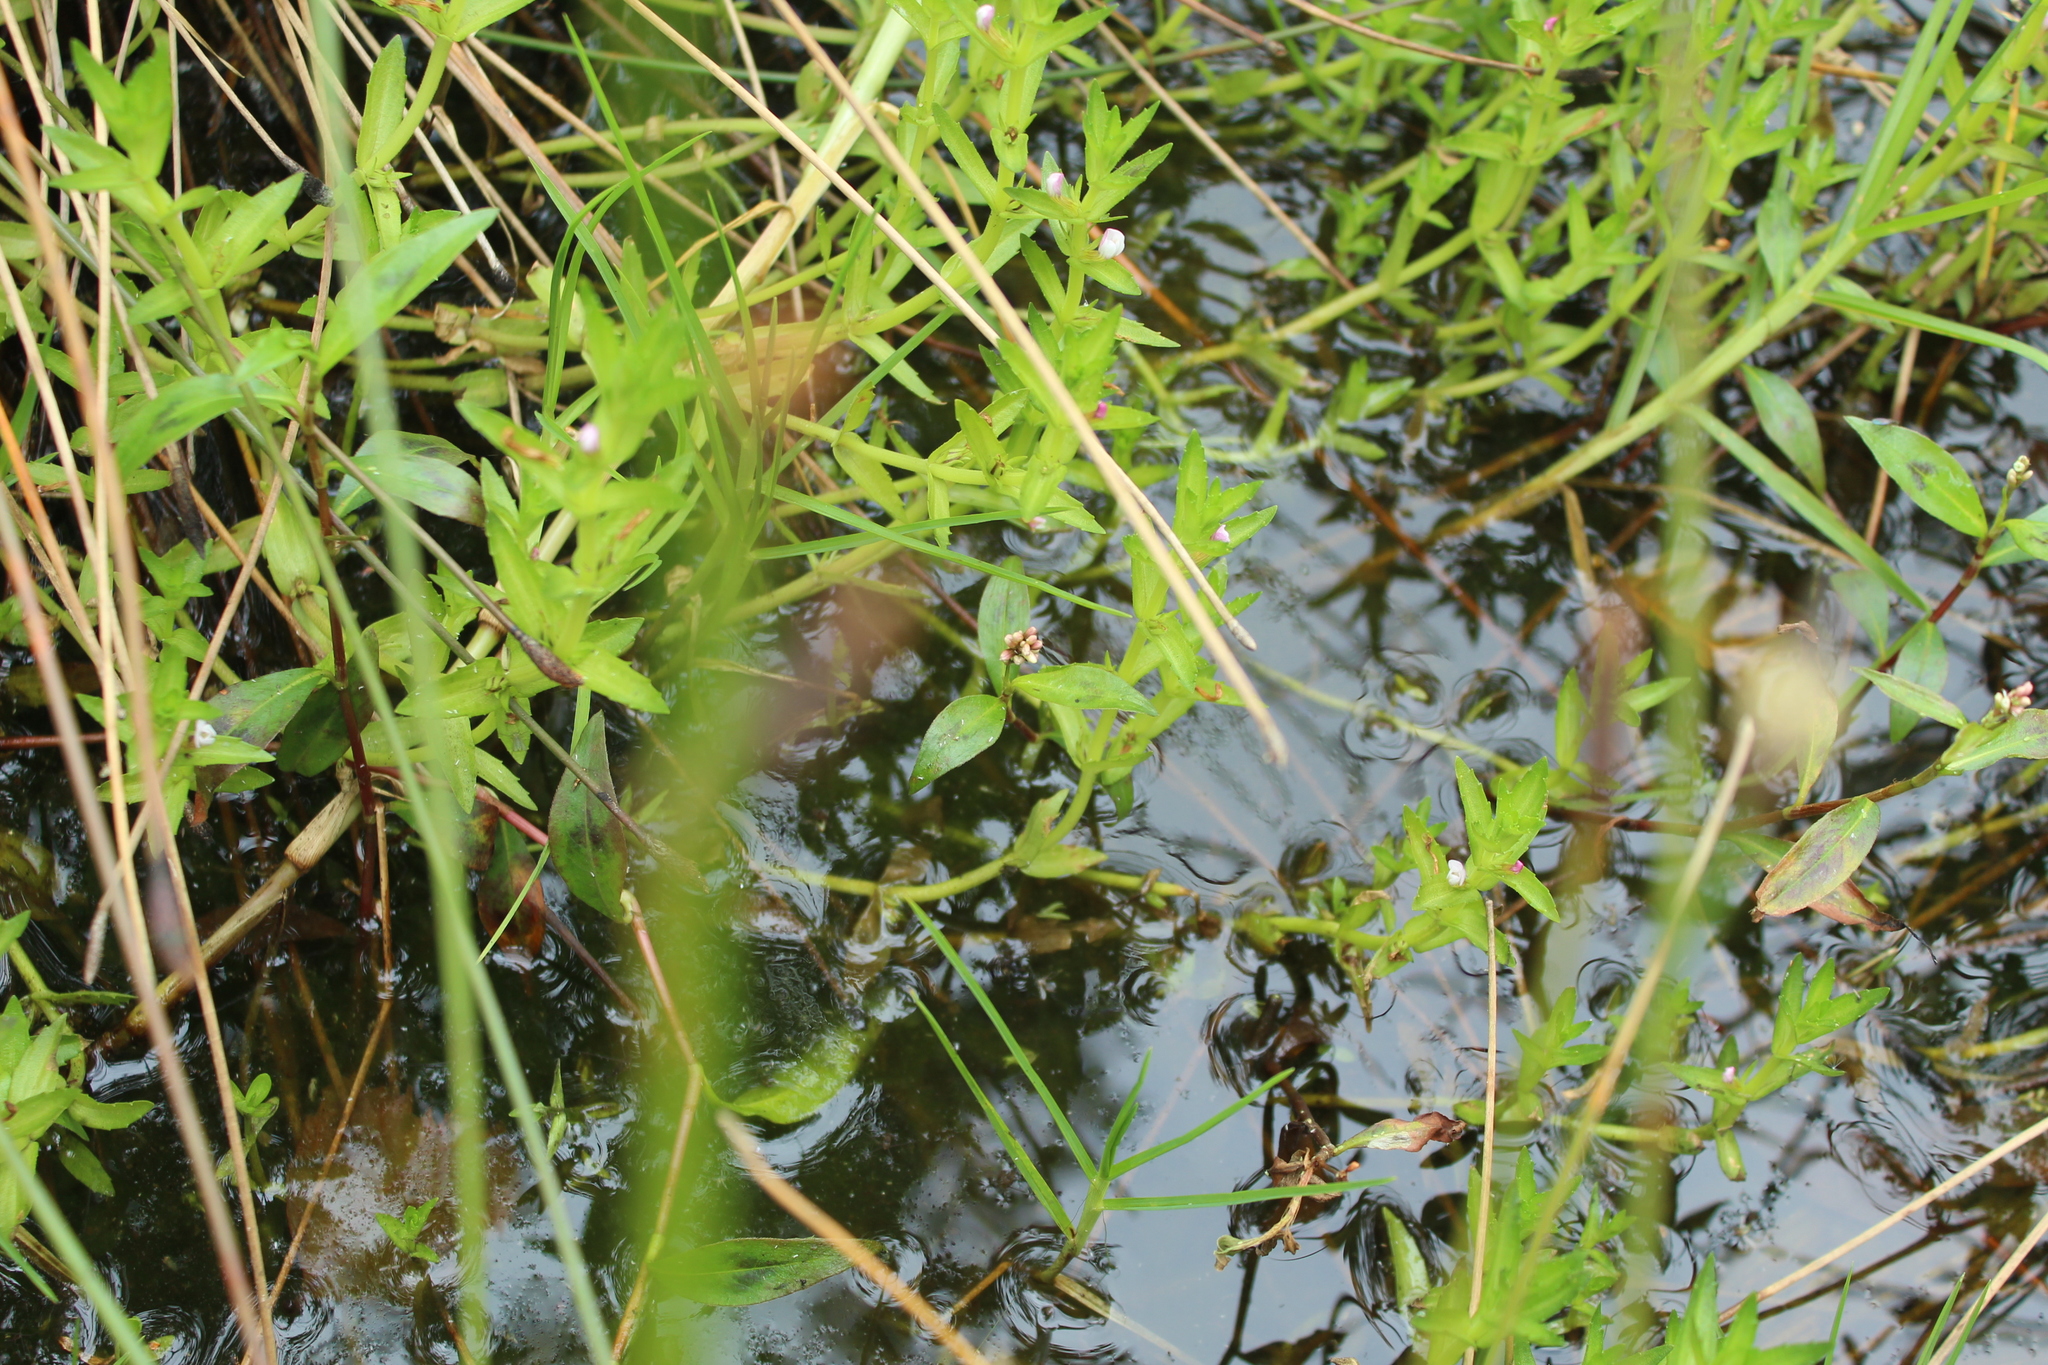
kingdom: Plantae
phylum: Tracheophyta
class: Magnoliopsida
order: Lamiales
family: Plantaginaceae
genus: Gratiola
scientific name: Gratiola bogotensis
